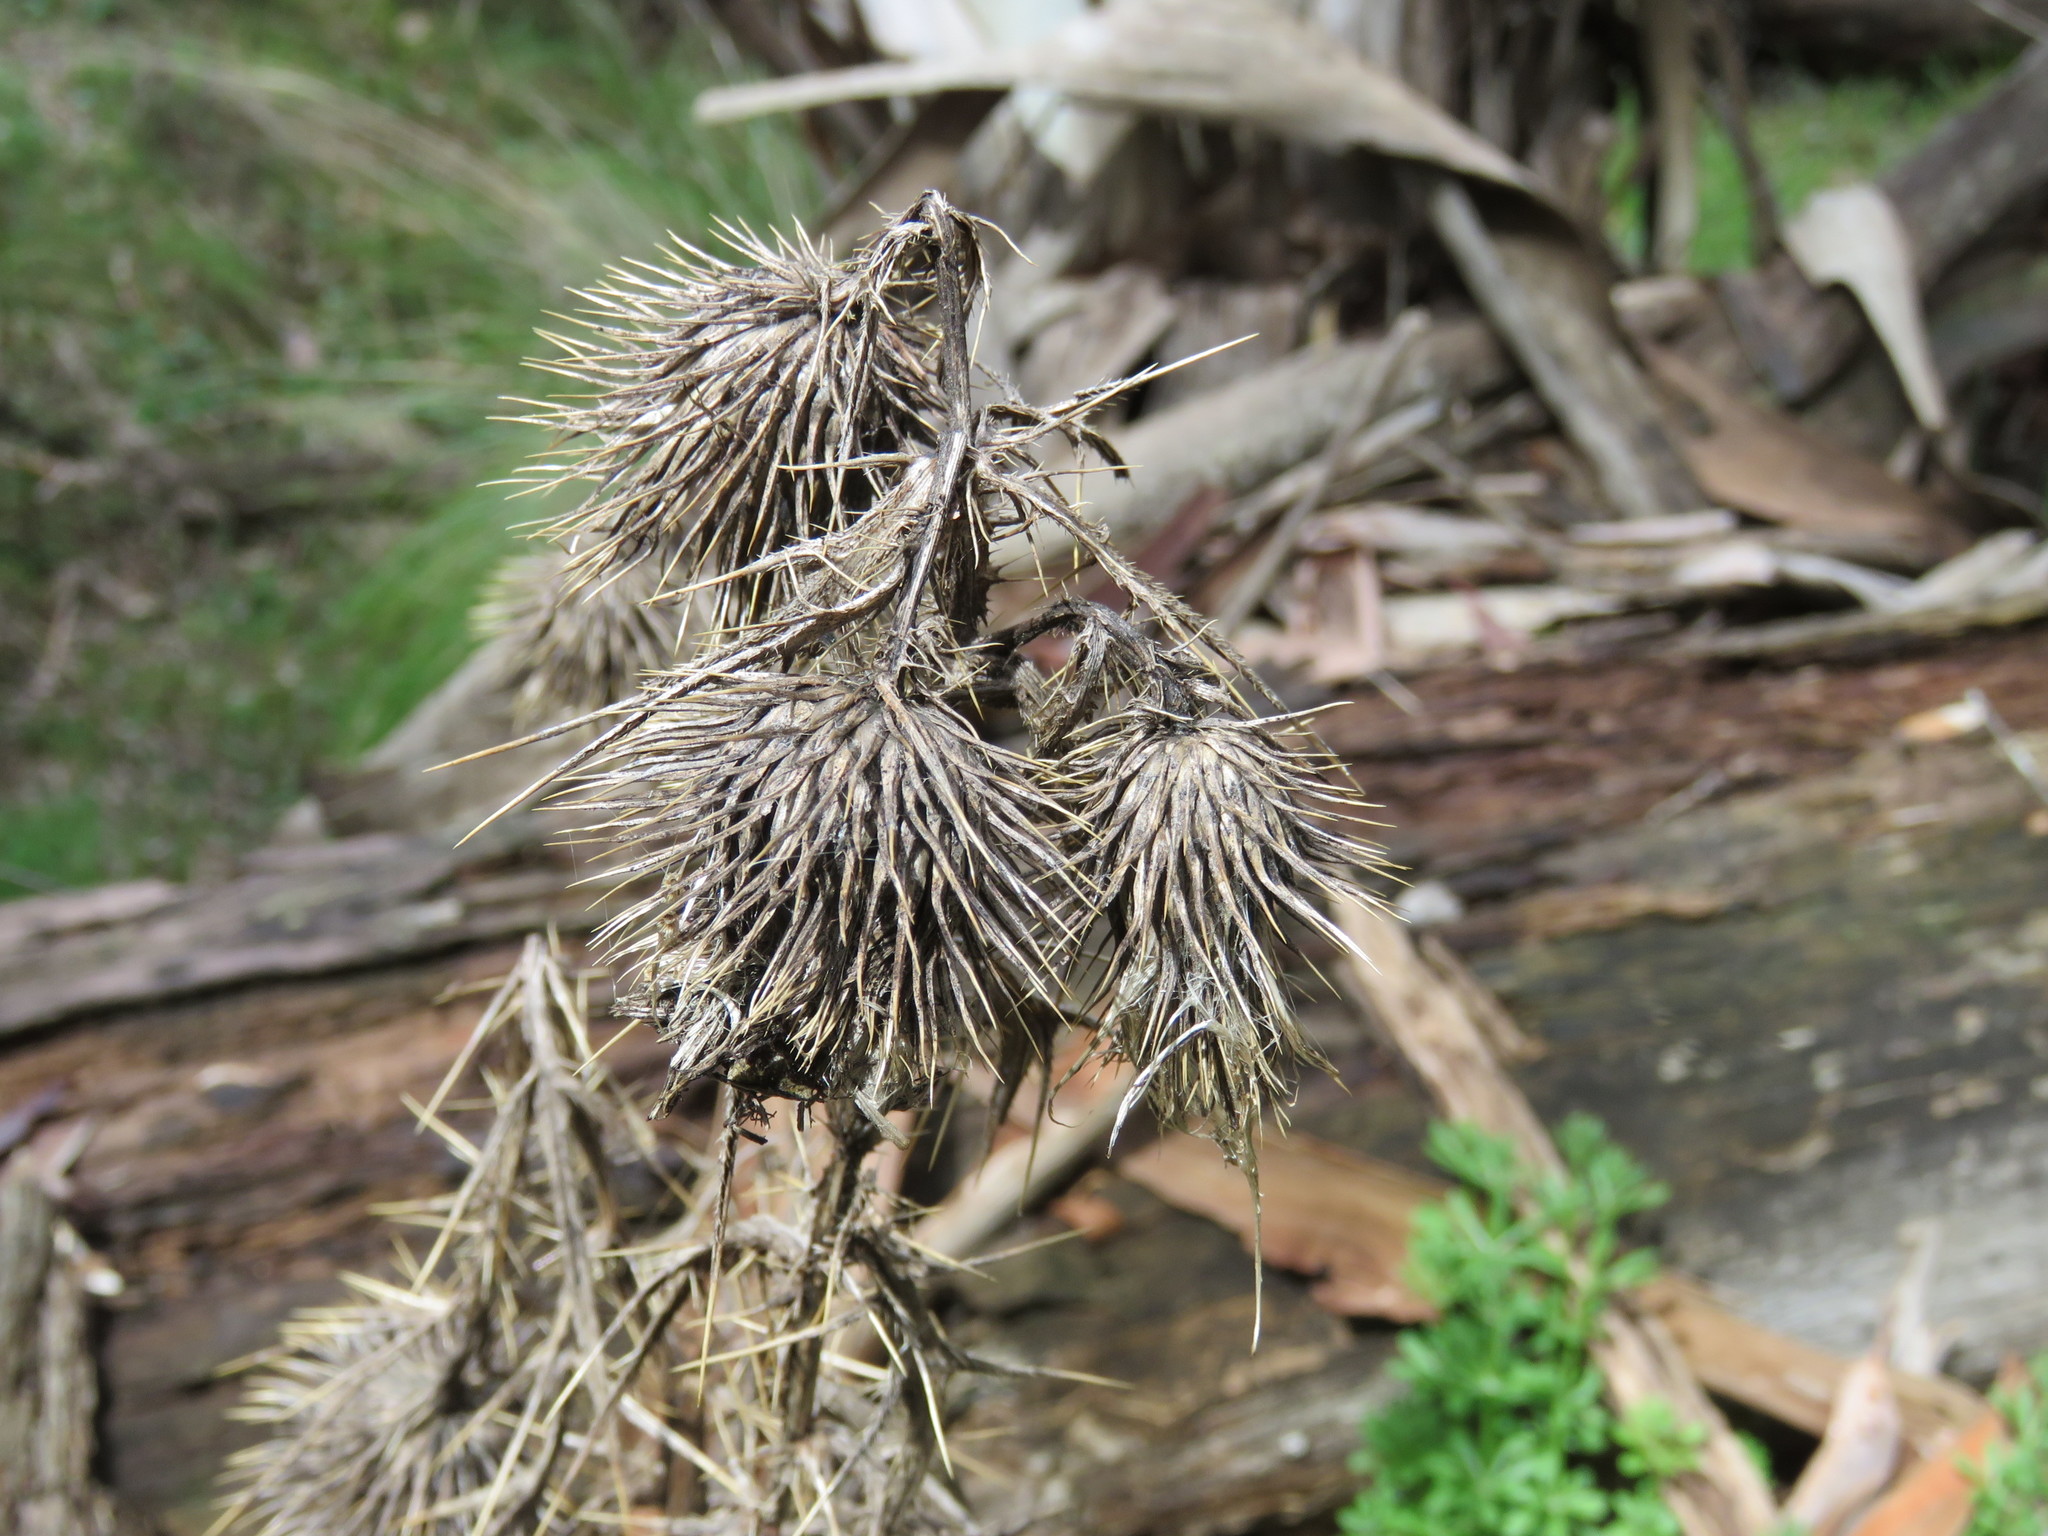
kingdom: Plantae
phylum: Tracheophyta
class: Magnoliopsida
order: Asterales
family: Asteraceae
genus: Cirsium
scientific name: Cirsium vulgare
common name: Bull thistle
